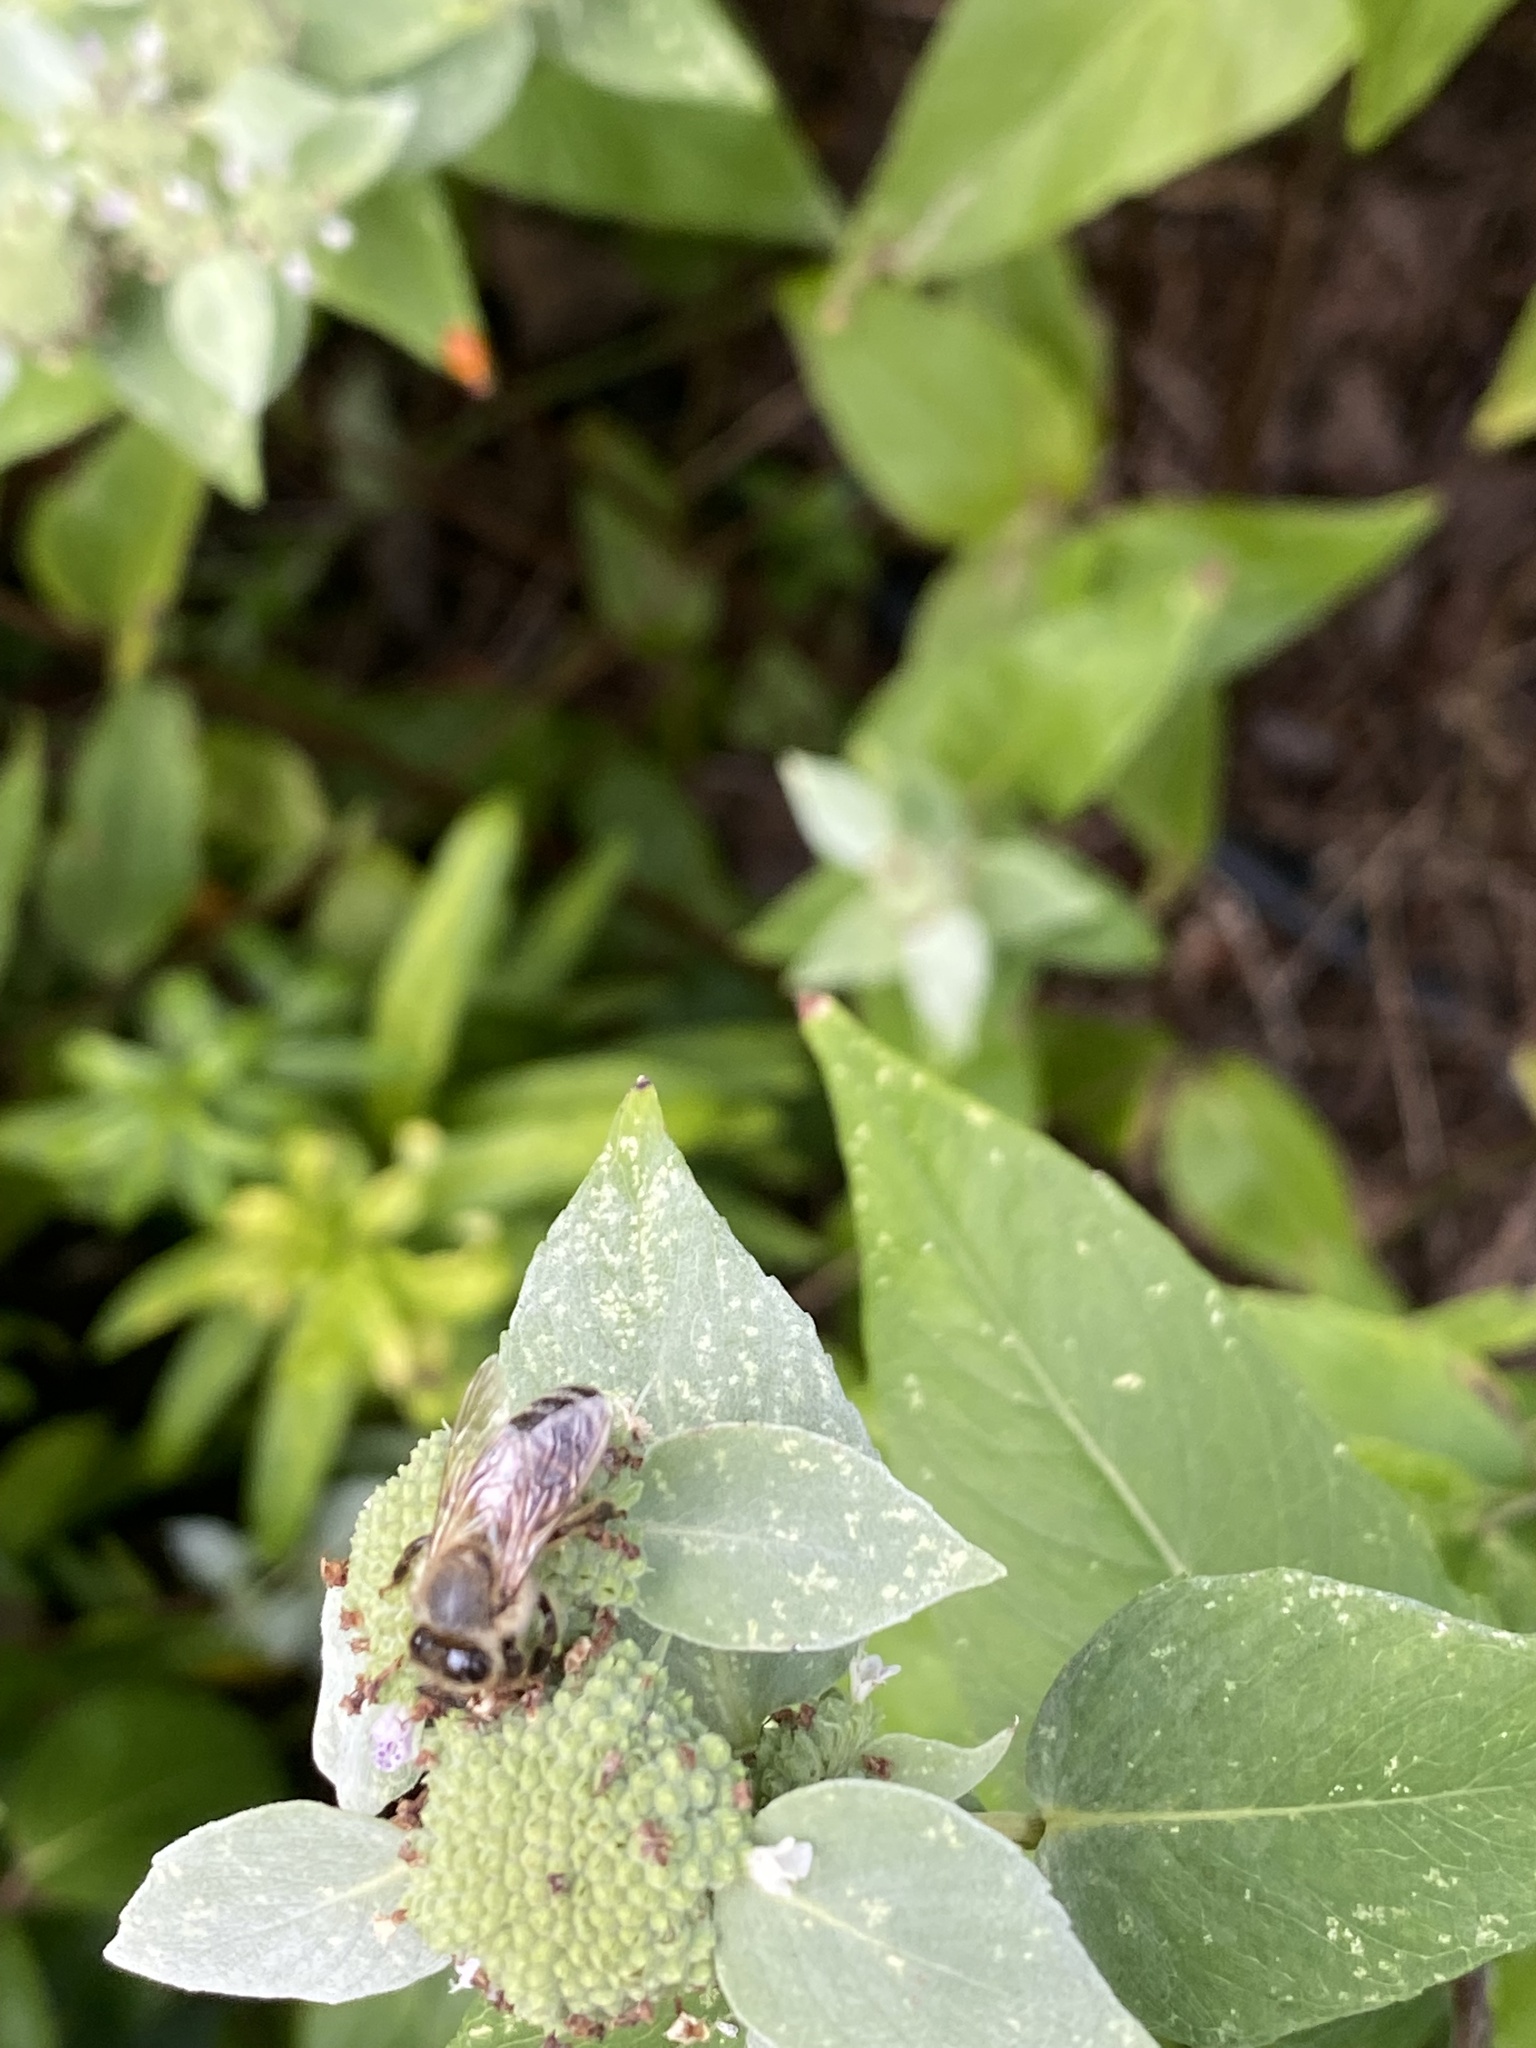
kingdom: Animalia
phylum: Arthropoda
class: Insecta
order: Hymenoptera
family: Apidae
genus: Apis
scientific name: Apis mellifera
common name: Honey bee
